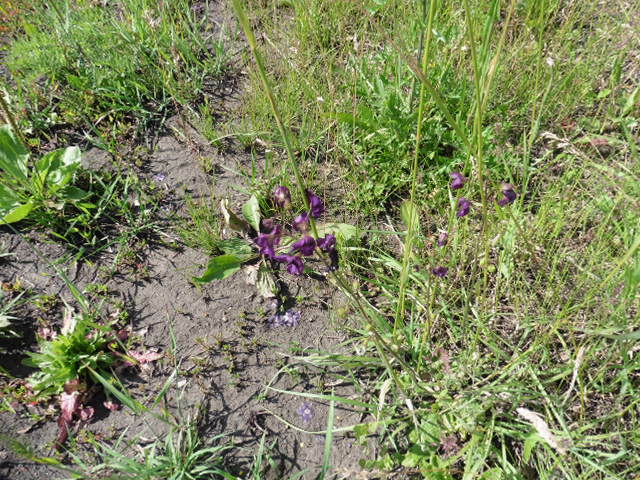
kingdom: Plantae
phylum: Tracheophyta
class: Magnoliopsida
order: Lamiales
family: Scrophulariaceae
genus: Verbascum
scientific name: Verbascum phoeniceum
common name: Purple mullein
